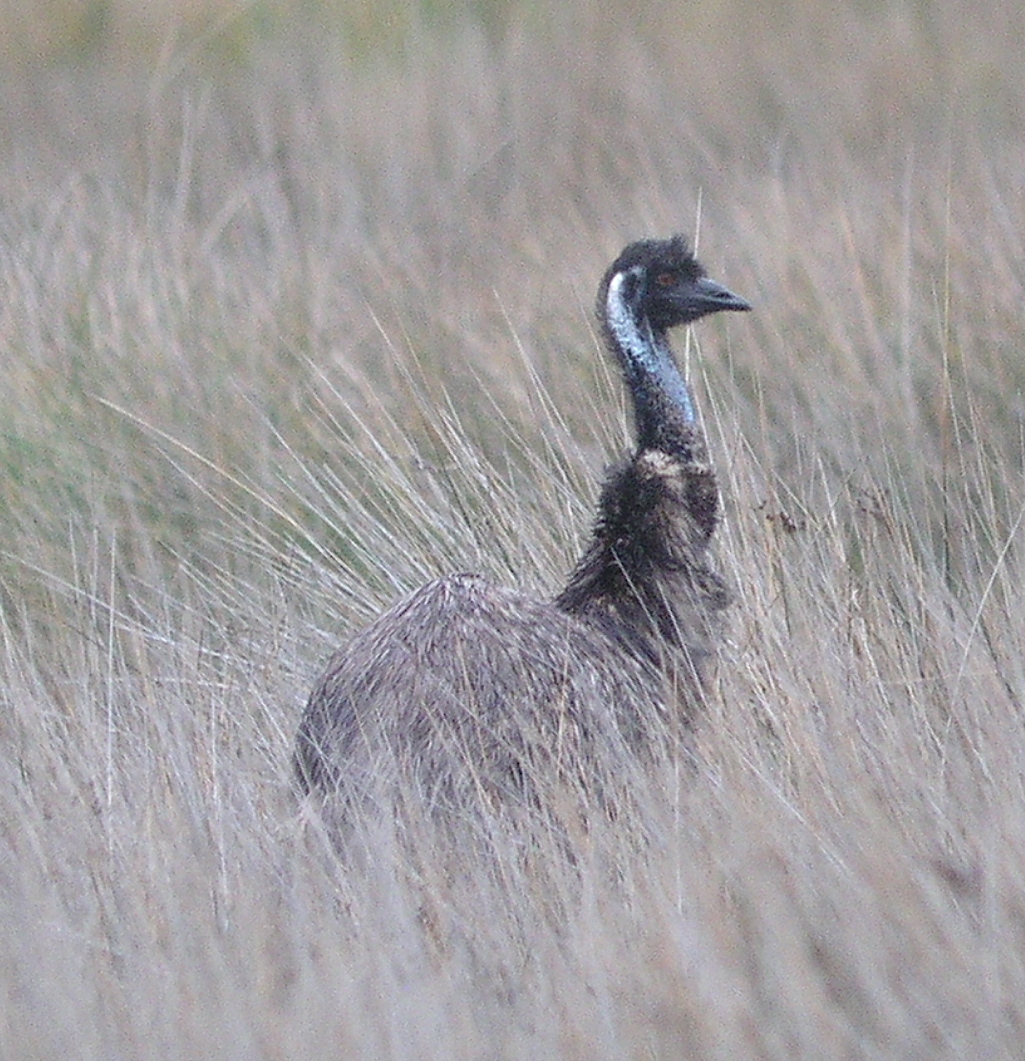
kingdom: Animalia
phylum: Chordata
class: Aves
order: Casuariiformes
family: Dromaiidae
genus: Dromaius
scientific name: Dromaius novaehollandiae
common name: Emu
